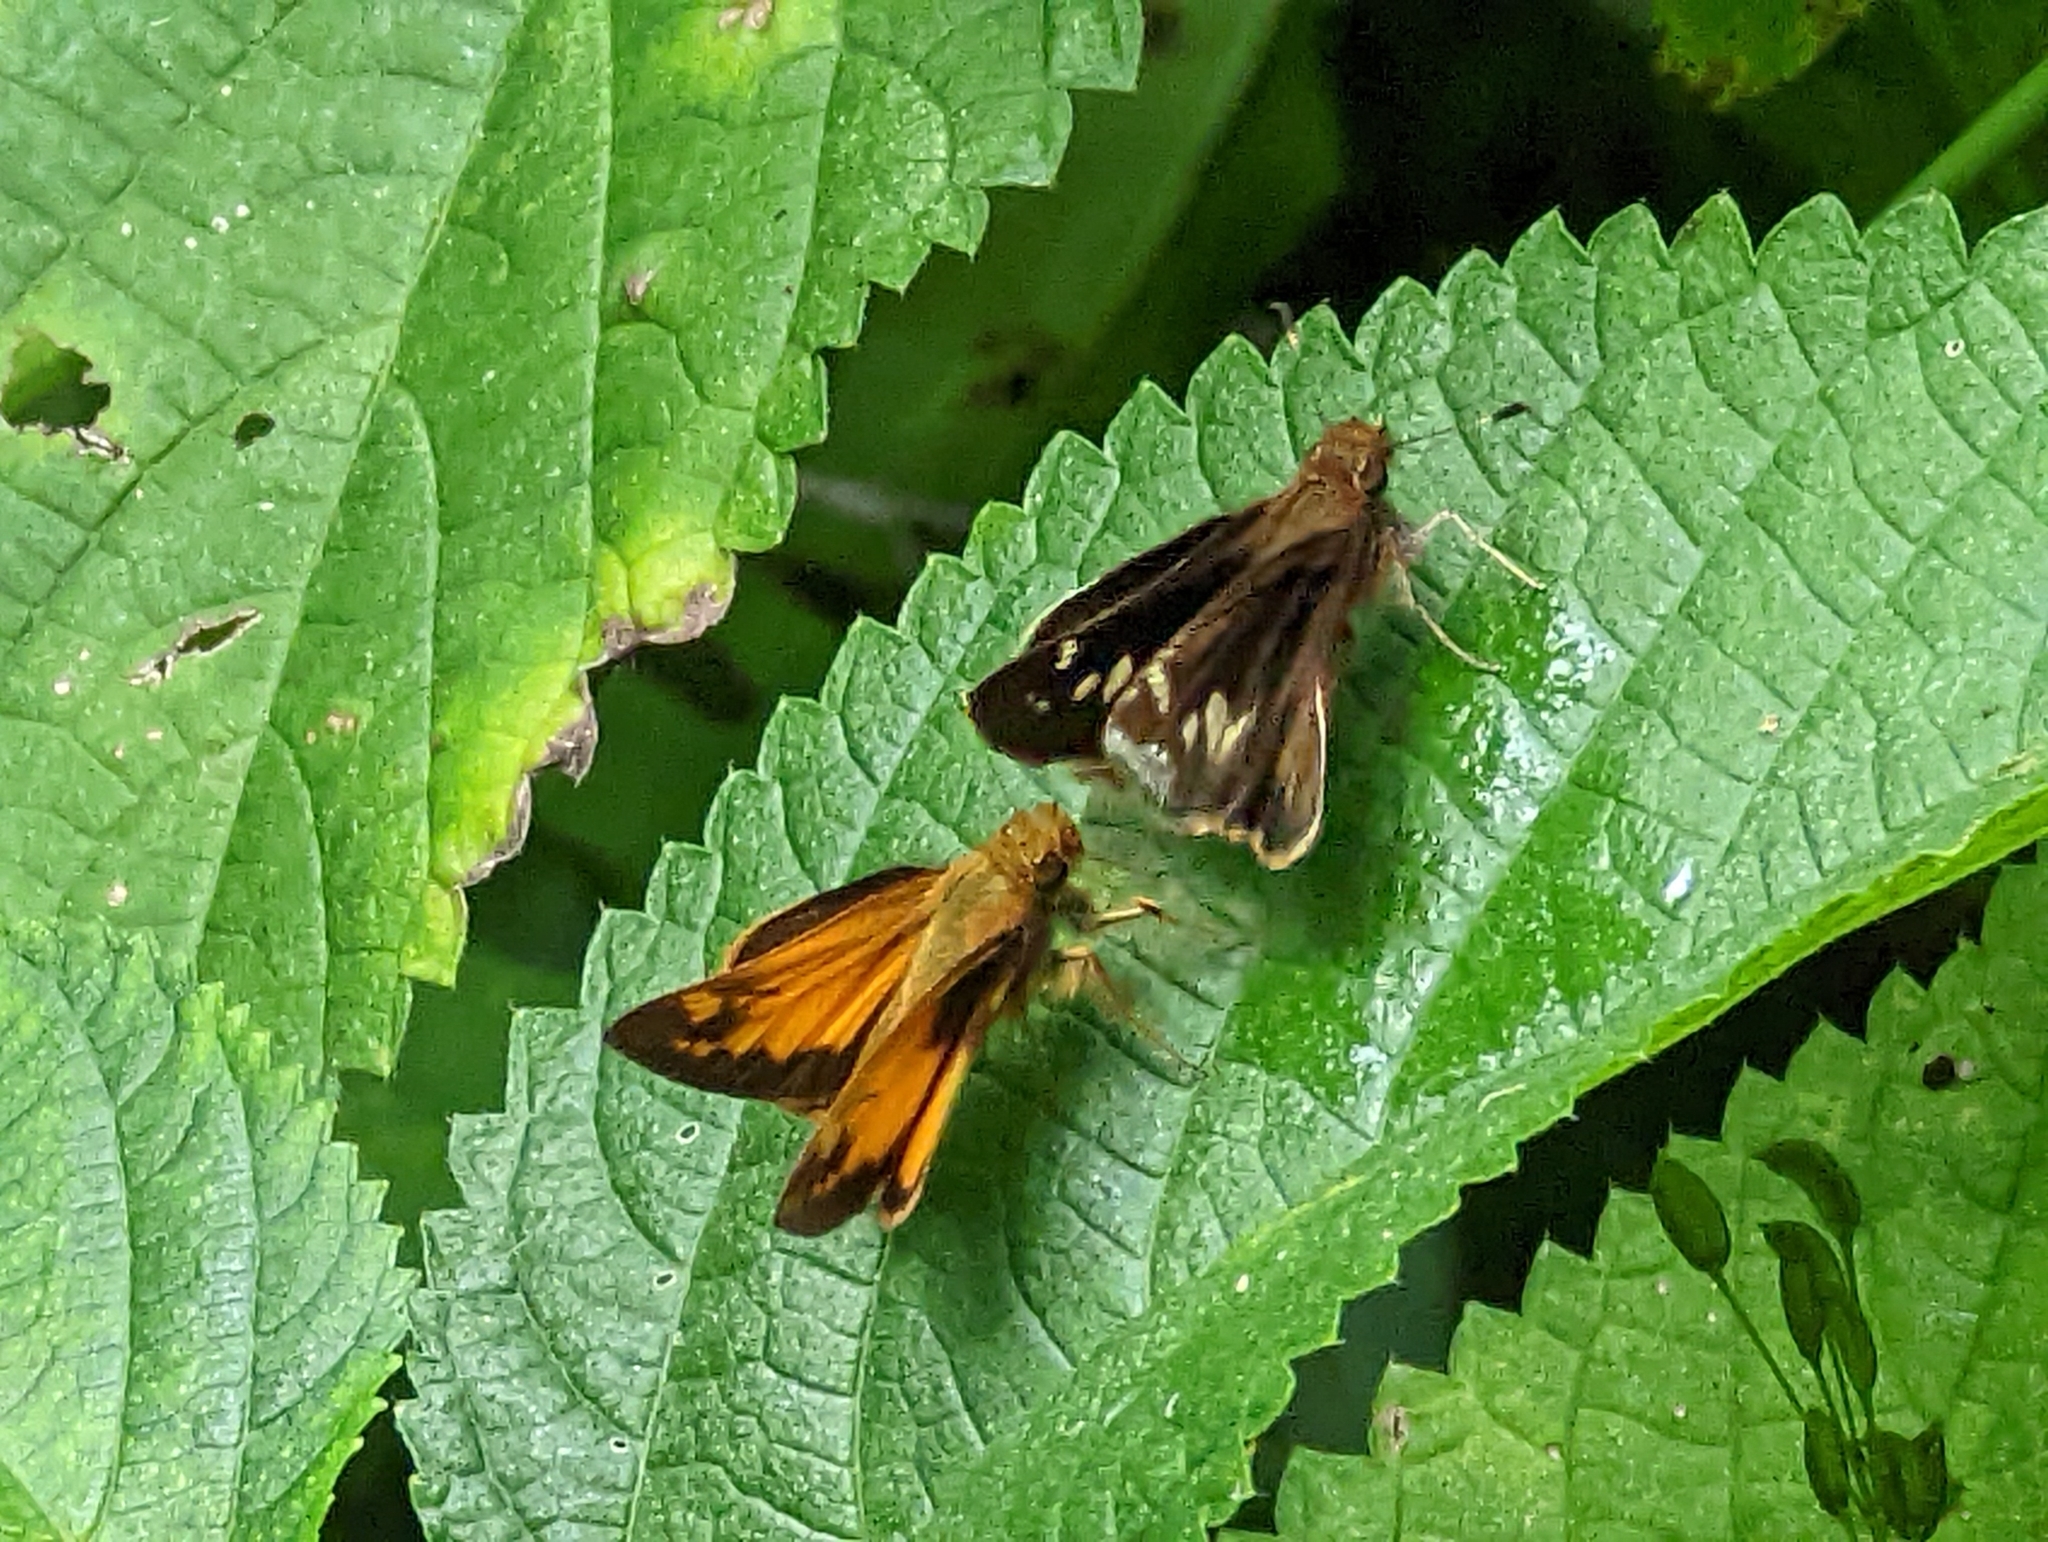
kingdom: Animalia
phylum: Arthropoda
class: Insecta
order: Lepidoptera
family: Hesperiidae
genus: Lon
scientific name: Lon zabulon
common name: Zabulon skipper
